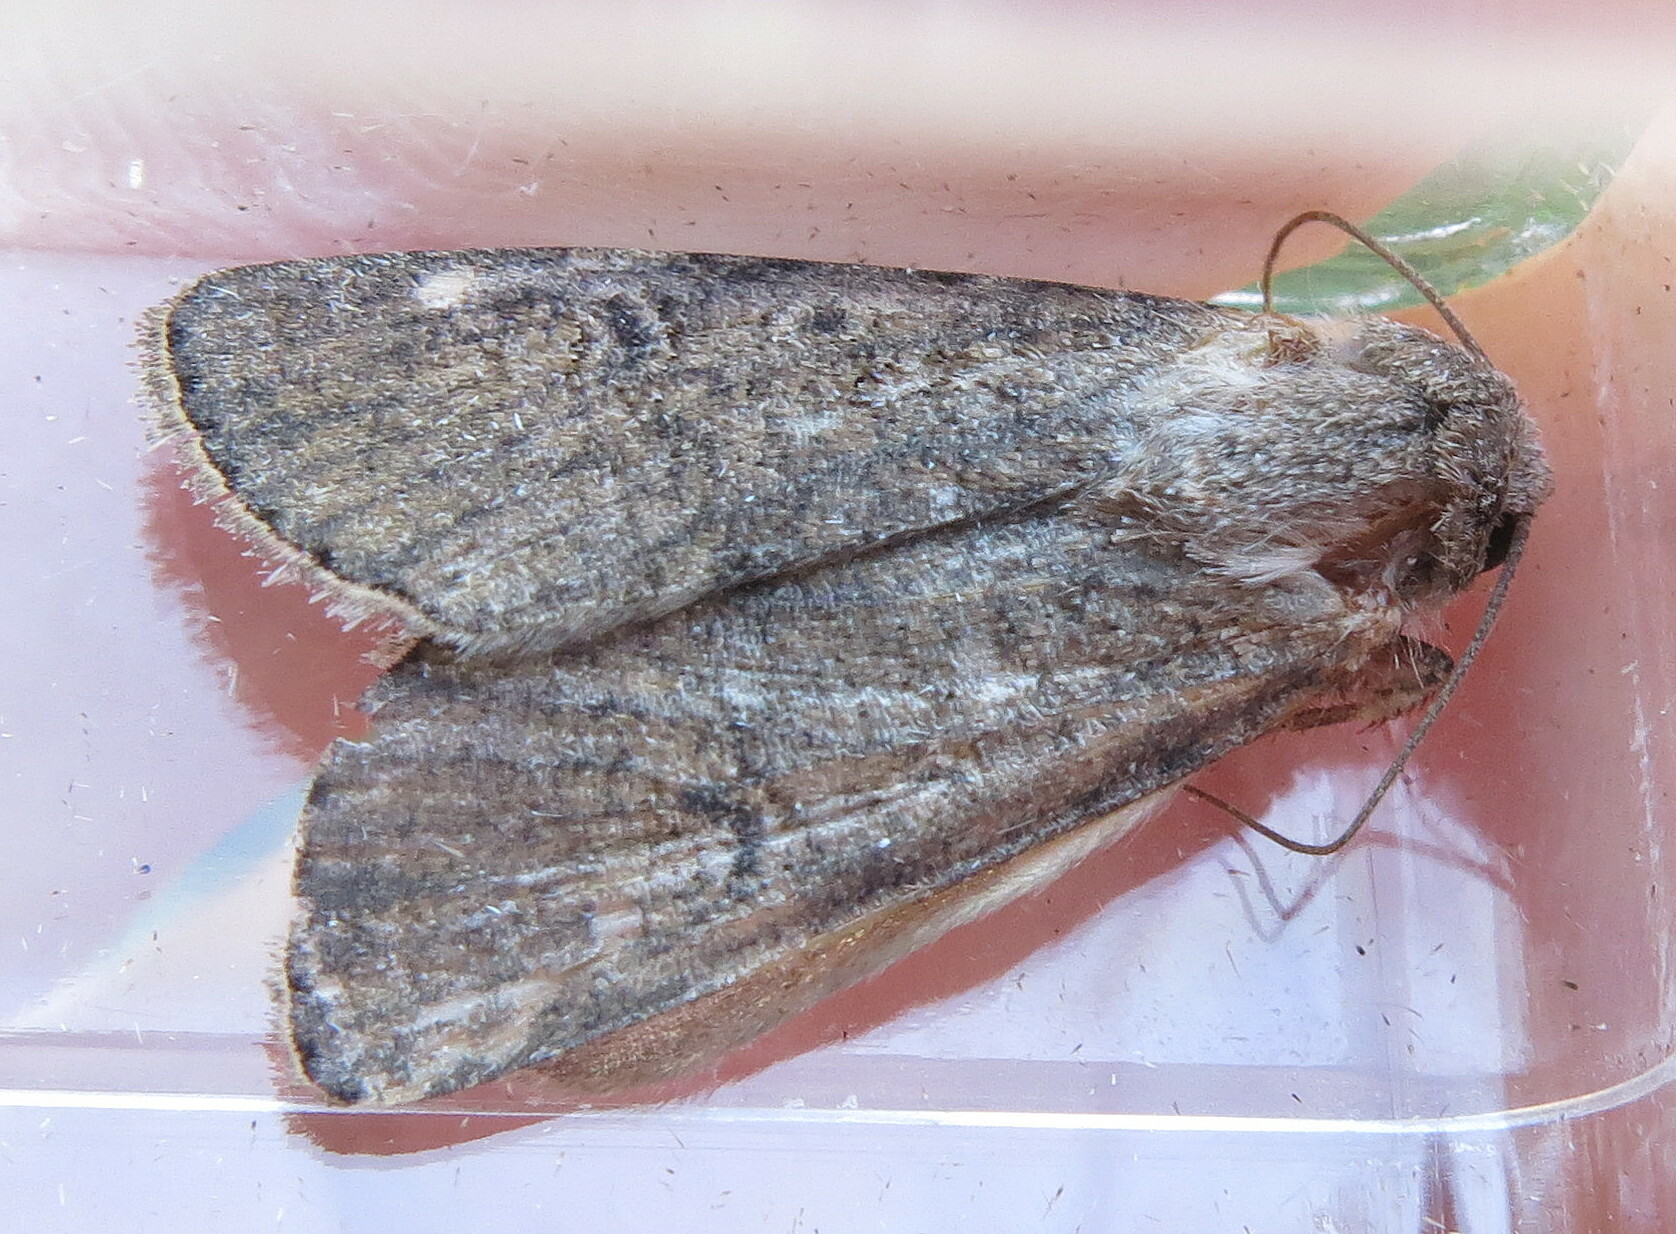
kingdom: Animalia
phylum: Arthropoda
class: Insecta
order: Lepidoptera
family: Noctuidae
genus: Agrotis
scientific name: Agrotis segetum
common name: Turnip moth
